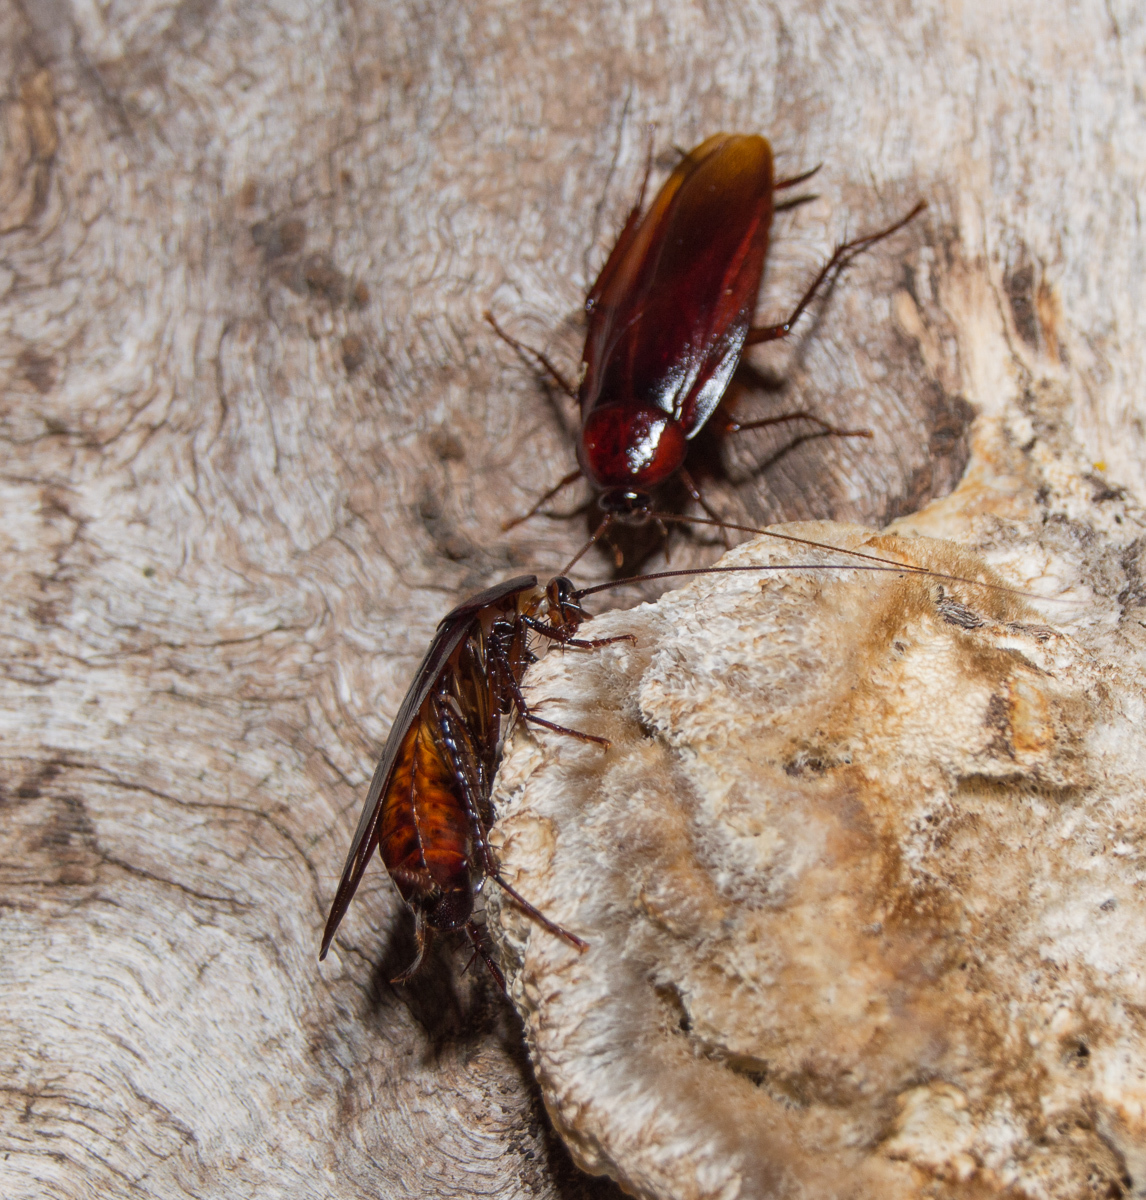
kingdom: Animalia
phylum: Arthropoda
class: Insecta
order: Blattodea
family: Blattidae
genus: Periplaneta
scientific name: Periplaneta fuliginosa
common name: Smokeybrown cockroad
